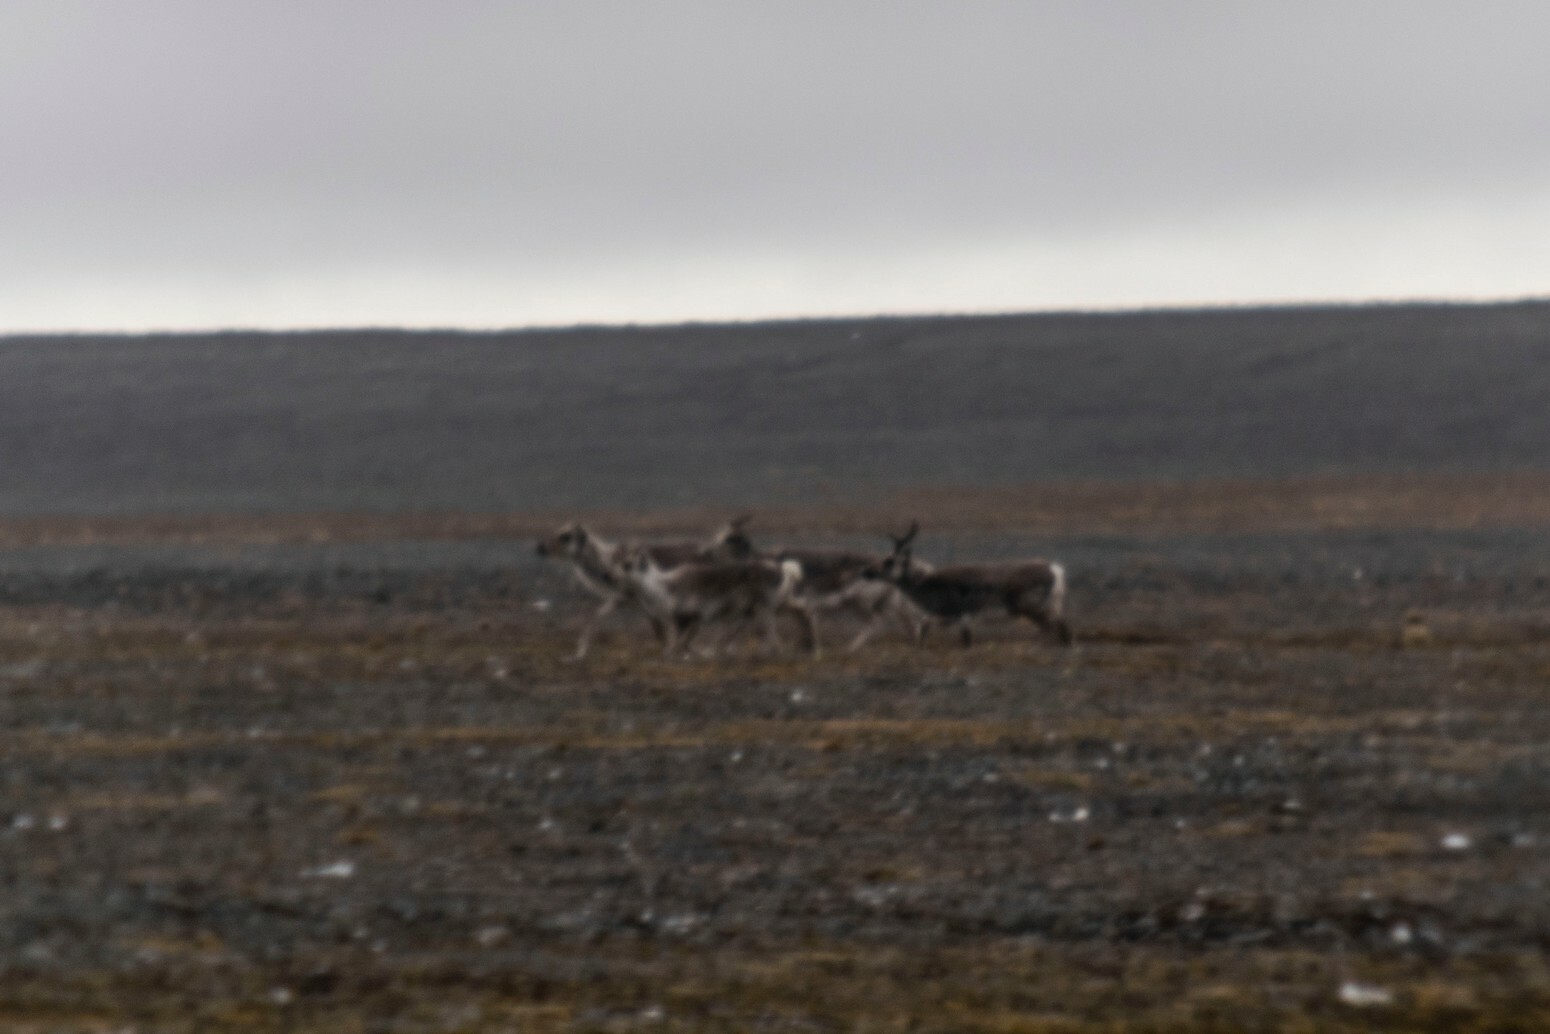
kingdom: Animalia
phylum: Chordata
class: Mammalia
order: Artiodactyla
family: Cervidae
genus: Rangifer
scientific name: Rangifer tarandus
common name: Reindeer
